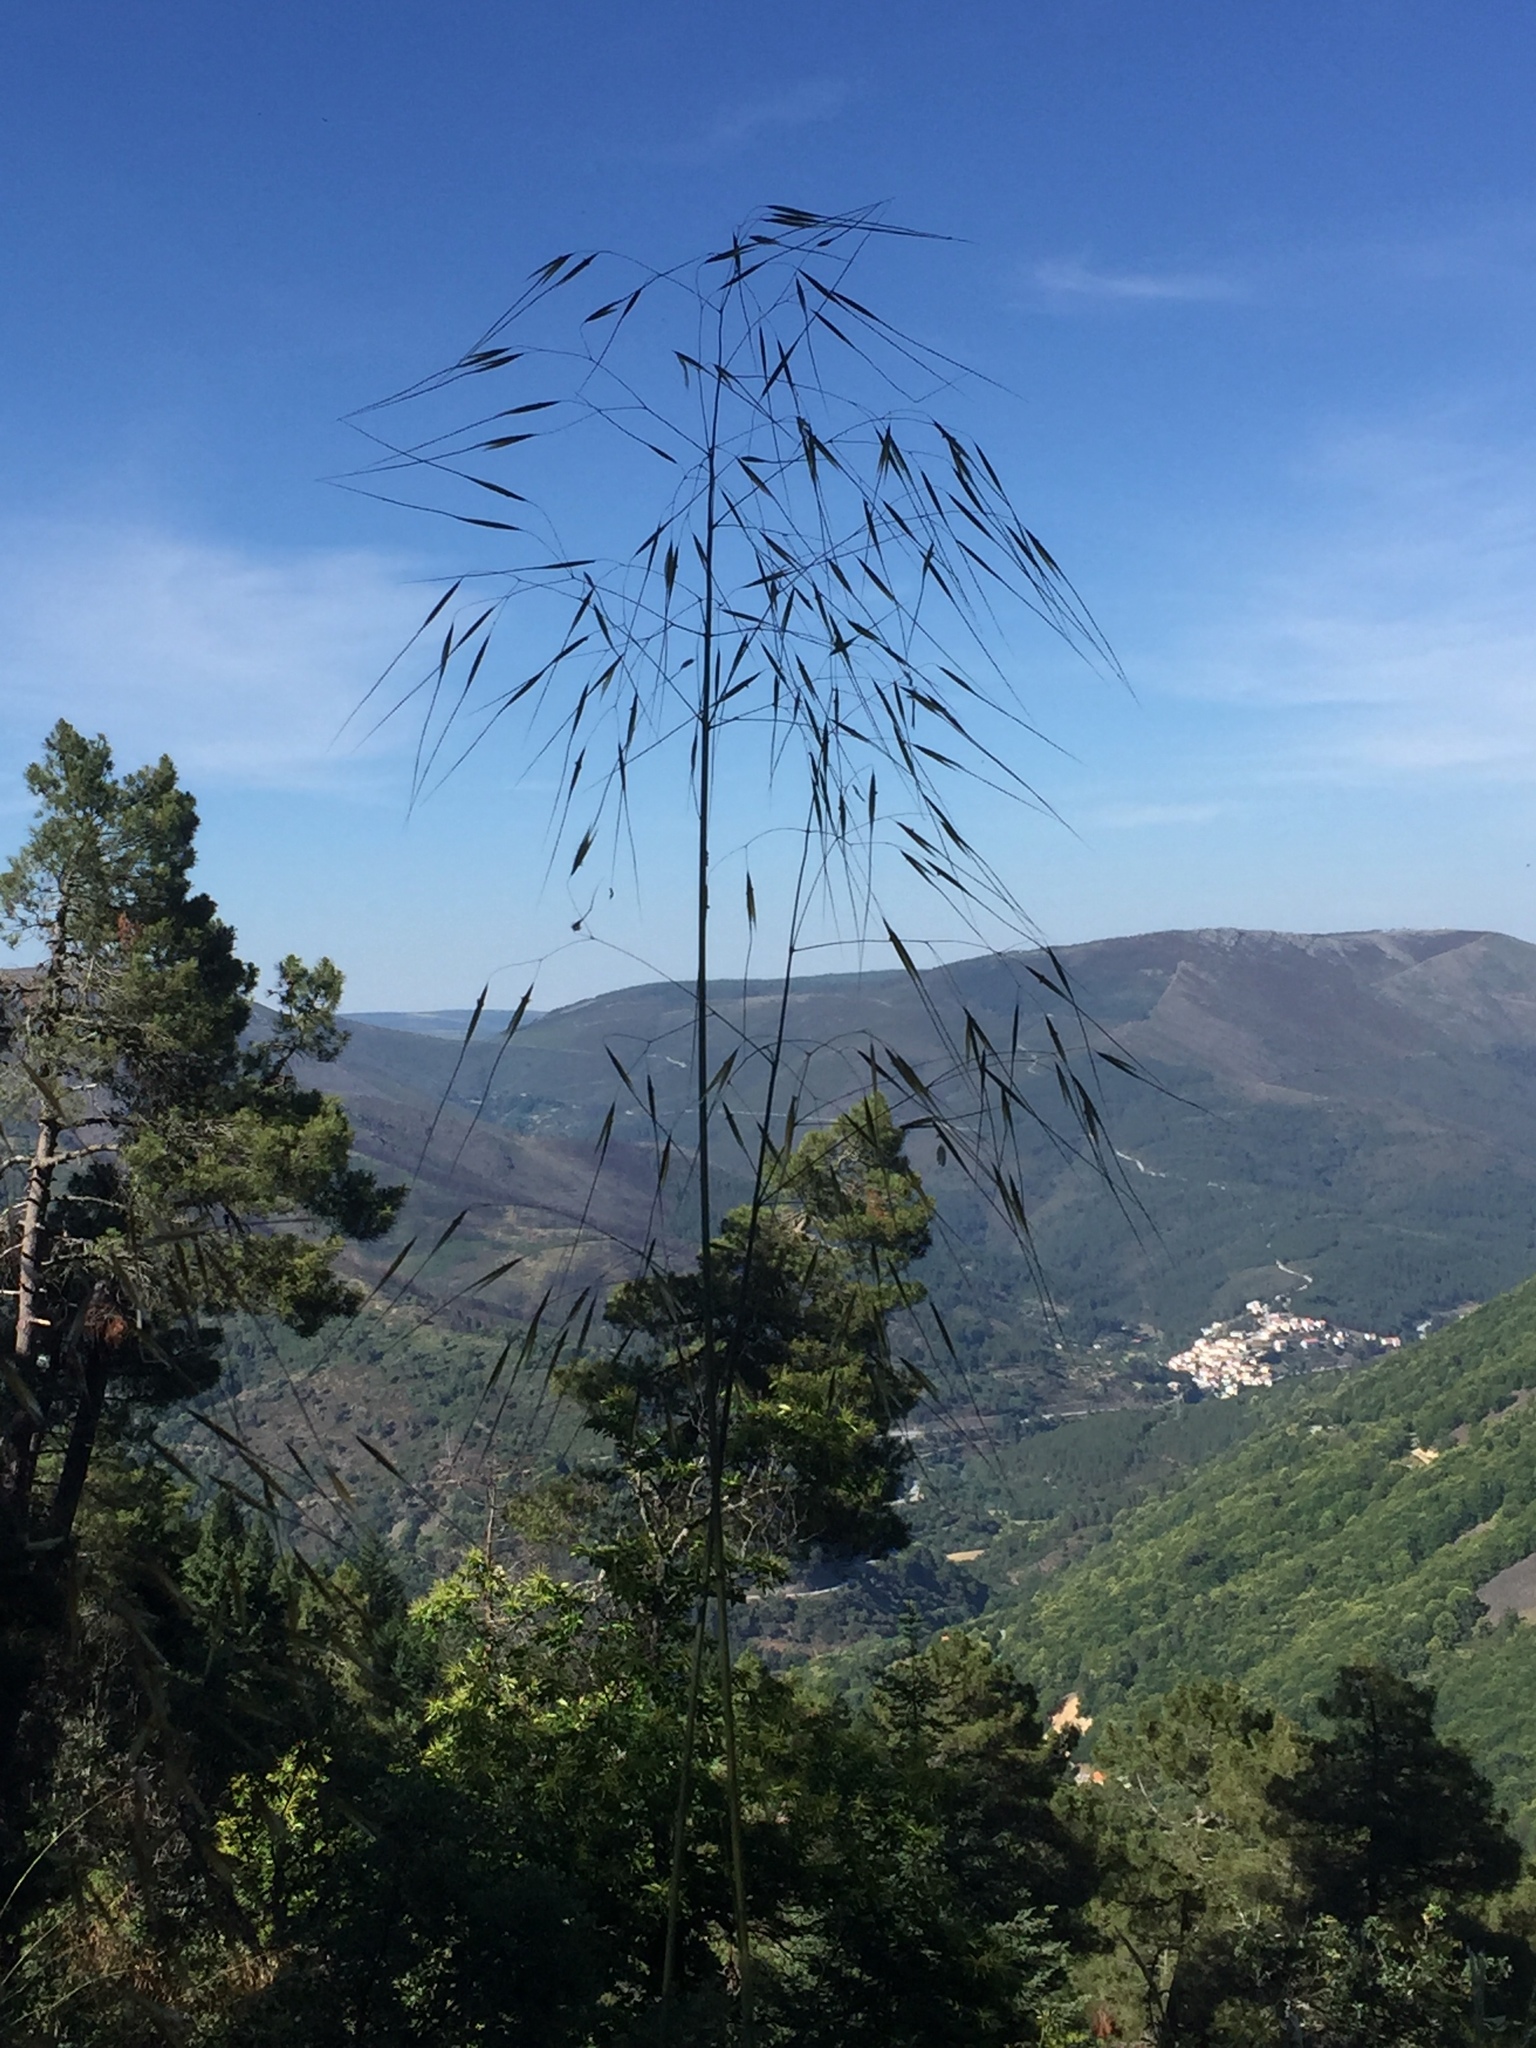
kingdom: Plantae
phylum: Tracheophyta
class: Liliopsida
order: Poales
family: Poaceae
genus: Celtica
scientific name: Celtica gigantea
